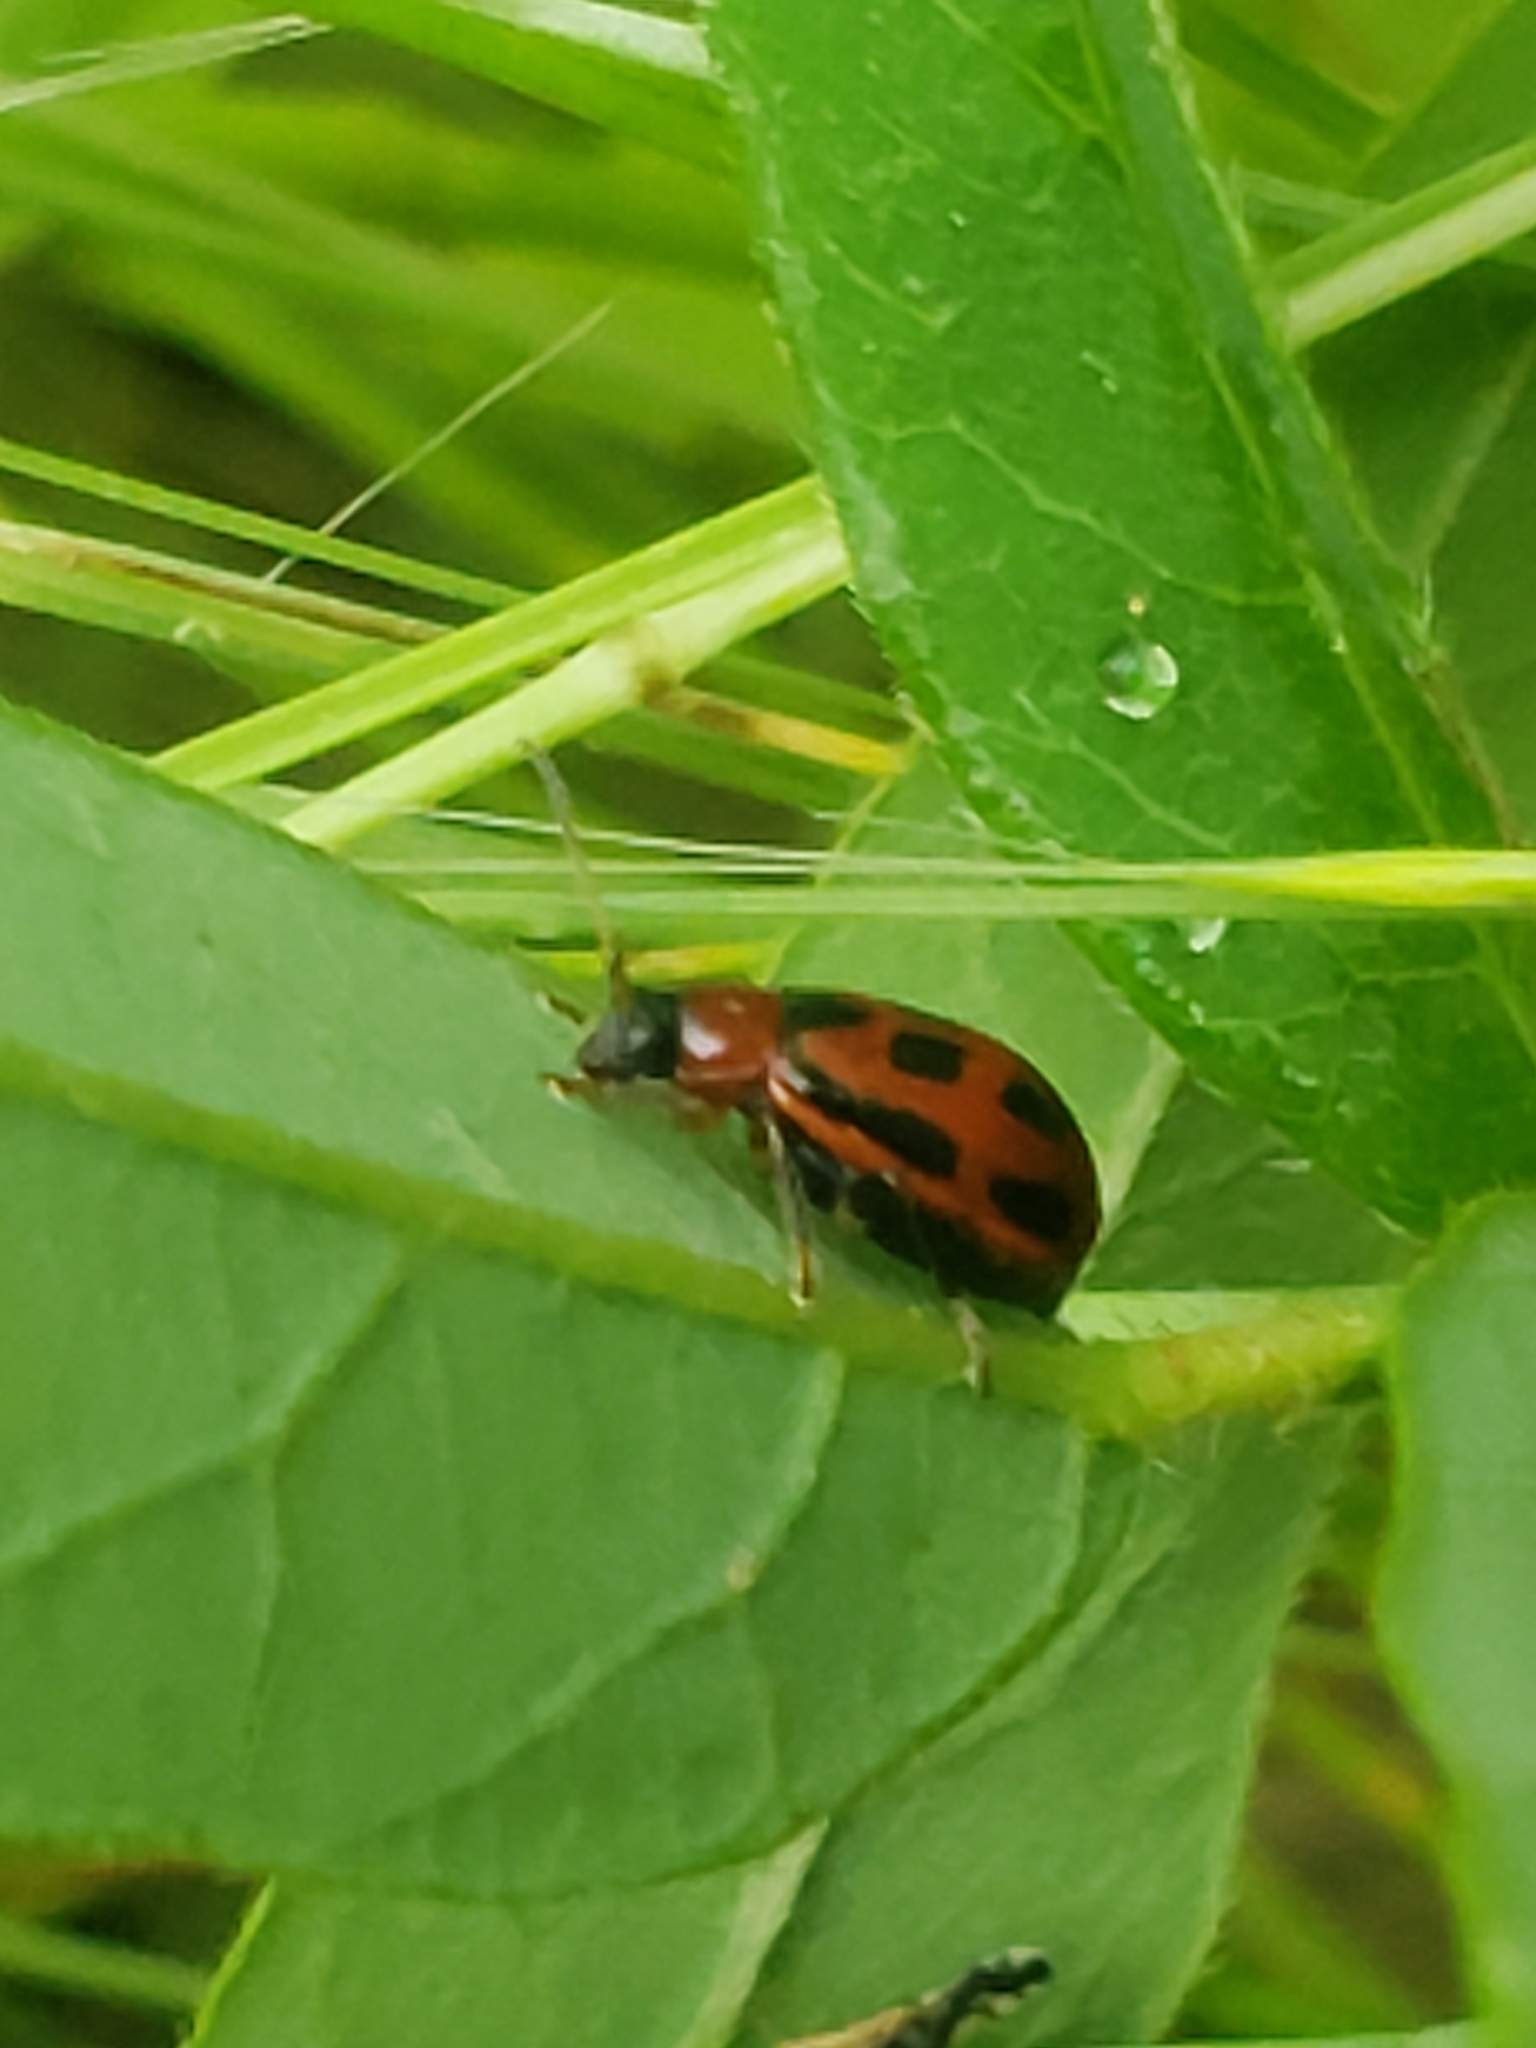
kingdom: Animalia
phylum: Arthropoda
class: Insecta
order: Coleoptera
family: Chrysomelidae
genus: Cerotoma
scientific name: Cerotoma trifurcata
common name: Bean leaf beetle
